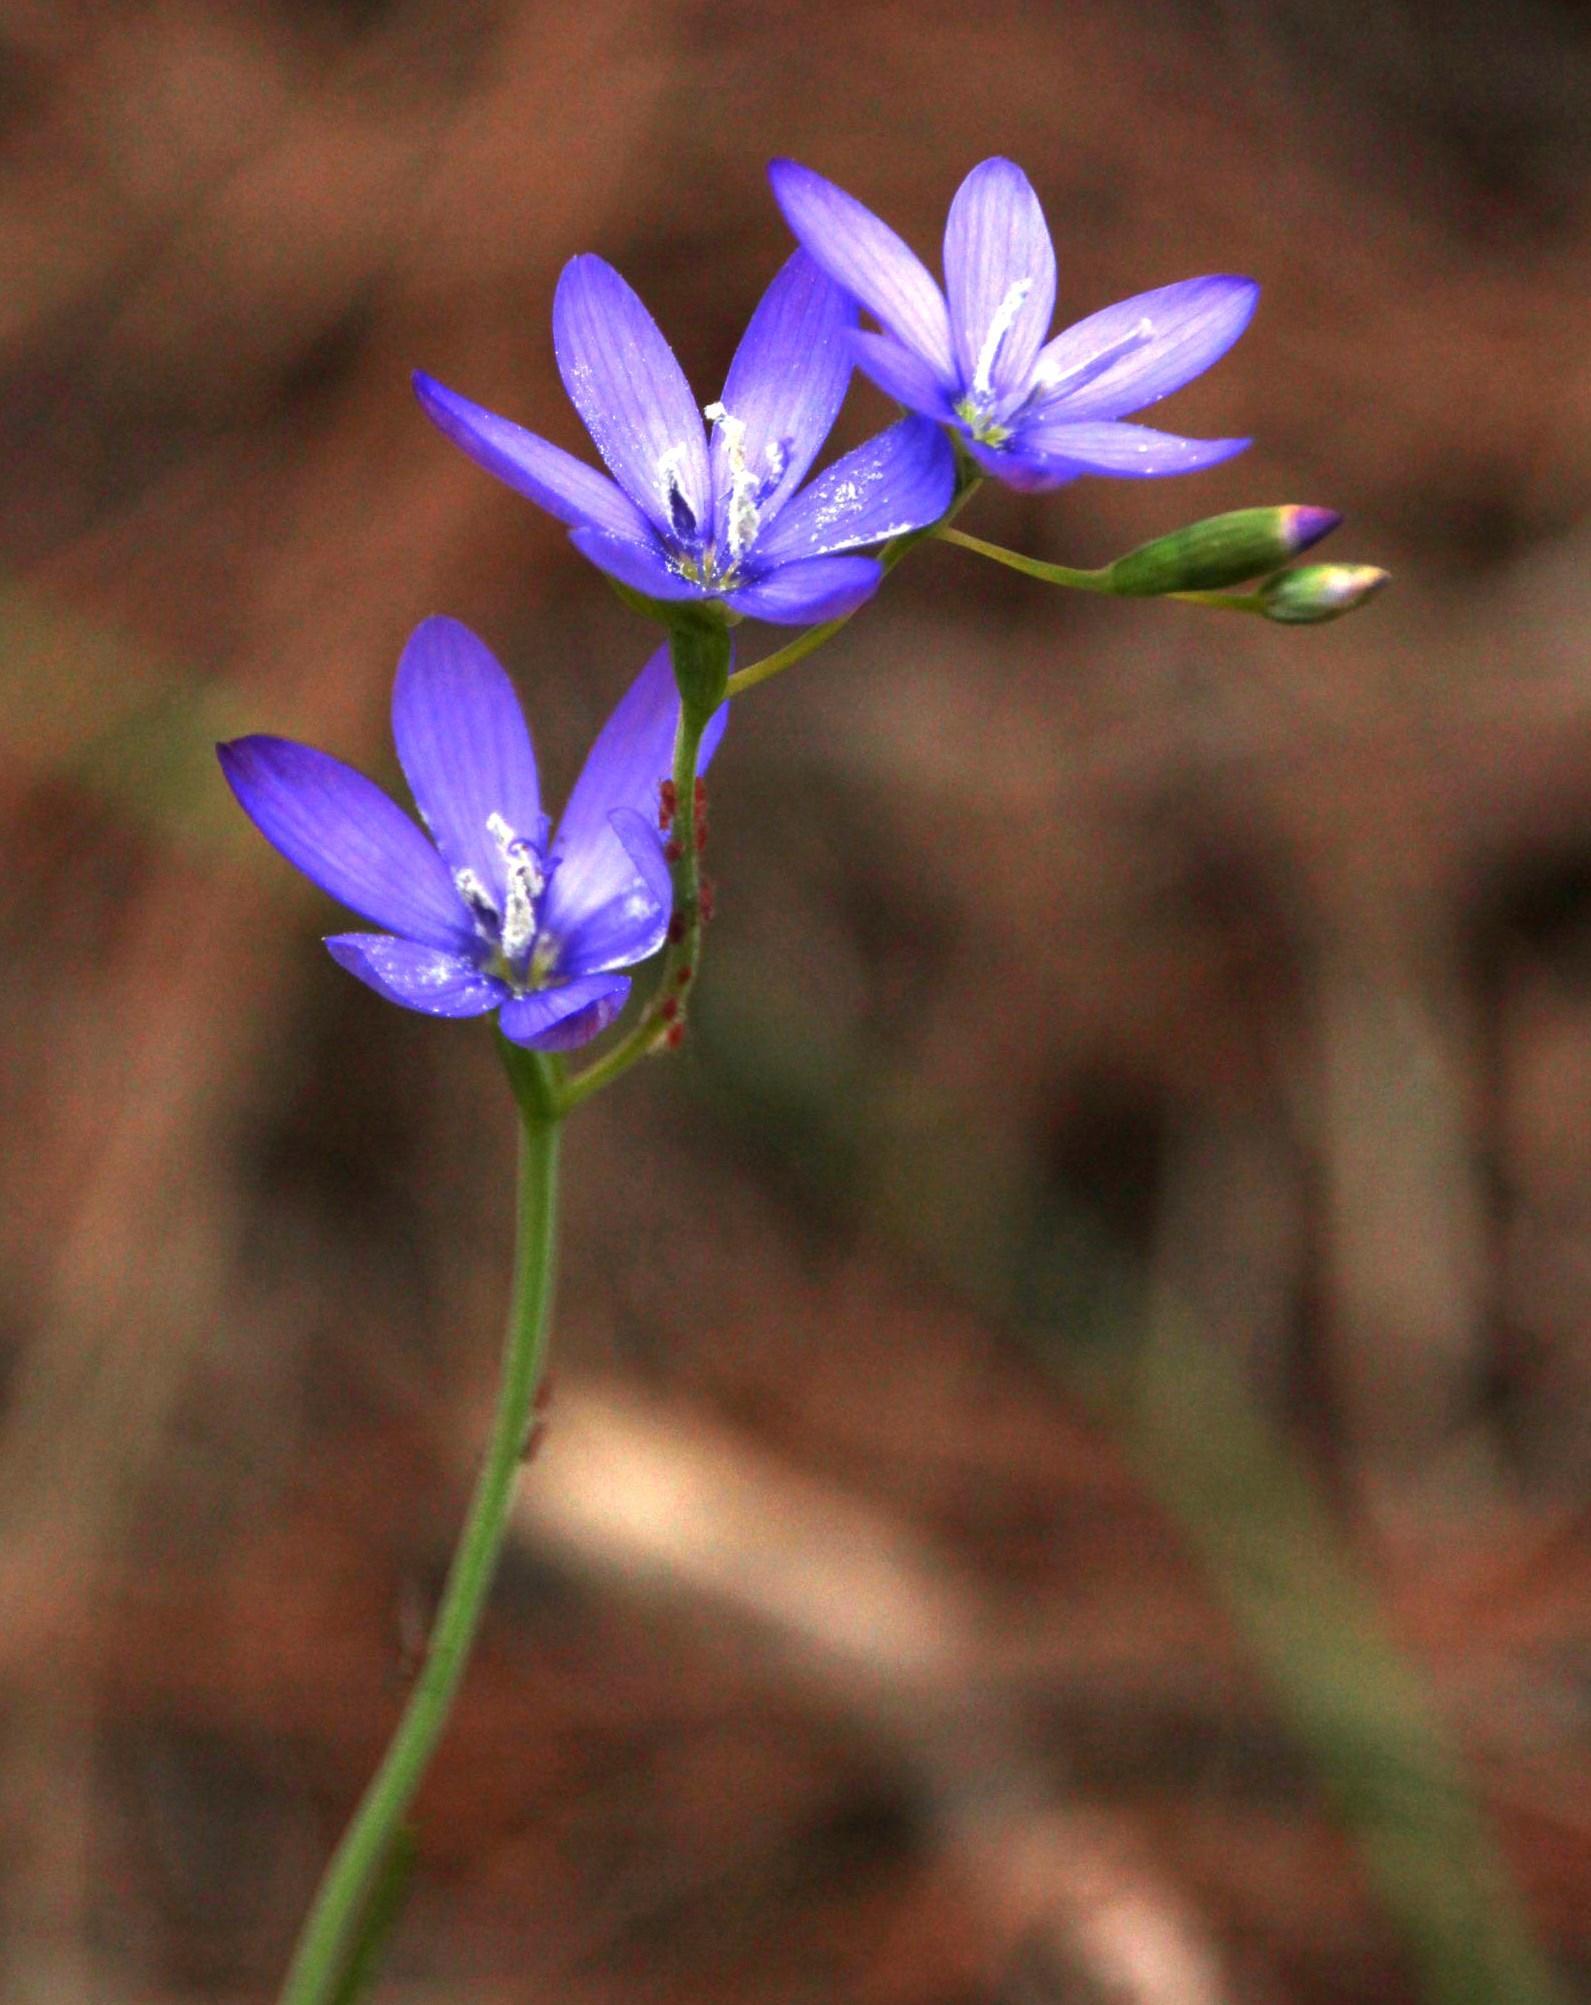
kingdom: Plantae
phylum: Tracheophyta
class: Liliopsida
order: Asparagales
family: Iridaceae
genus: Geissorhiza
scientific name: Geissorhiza aspera
